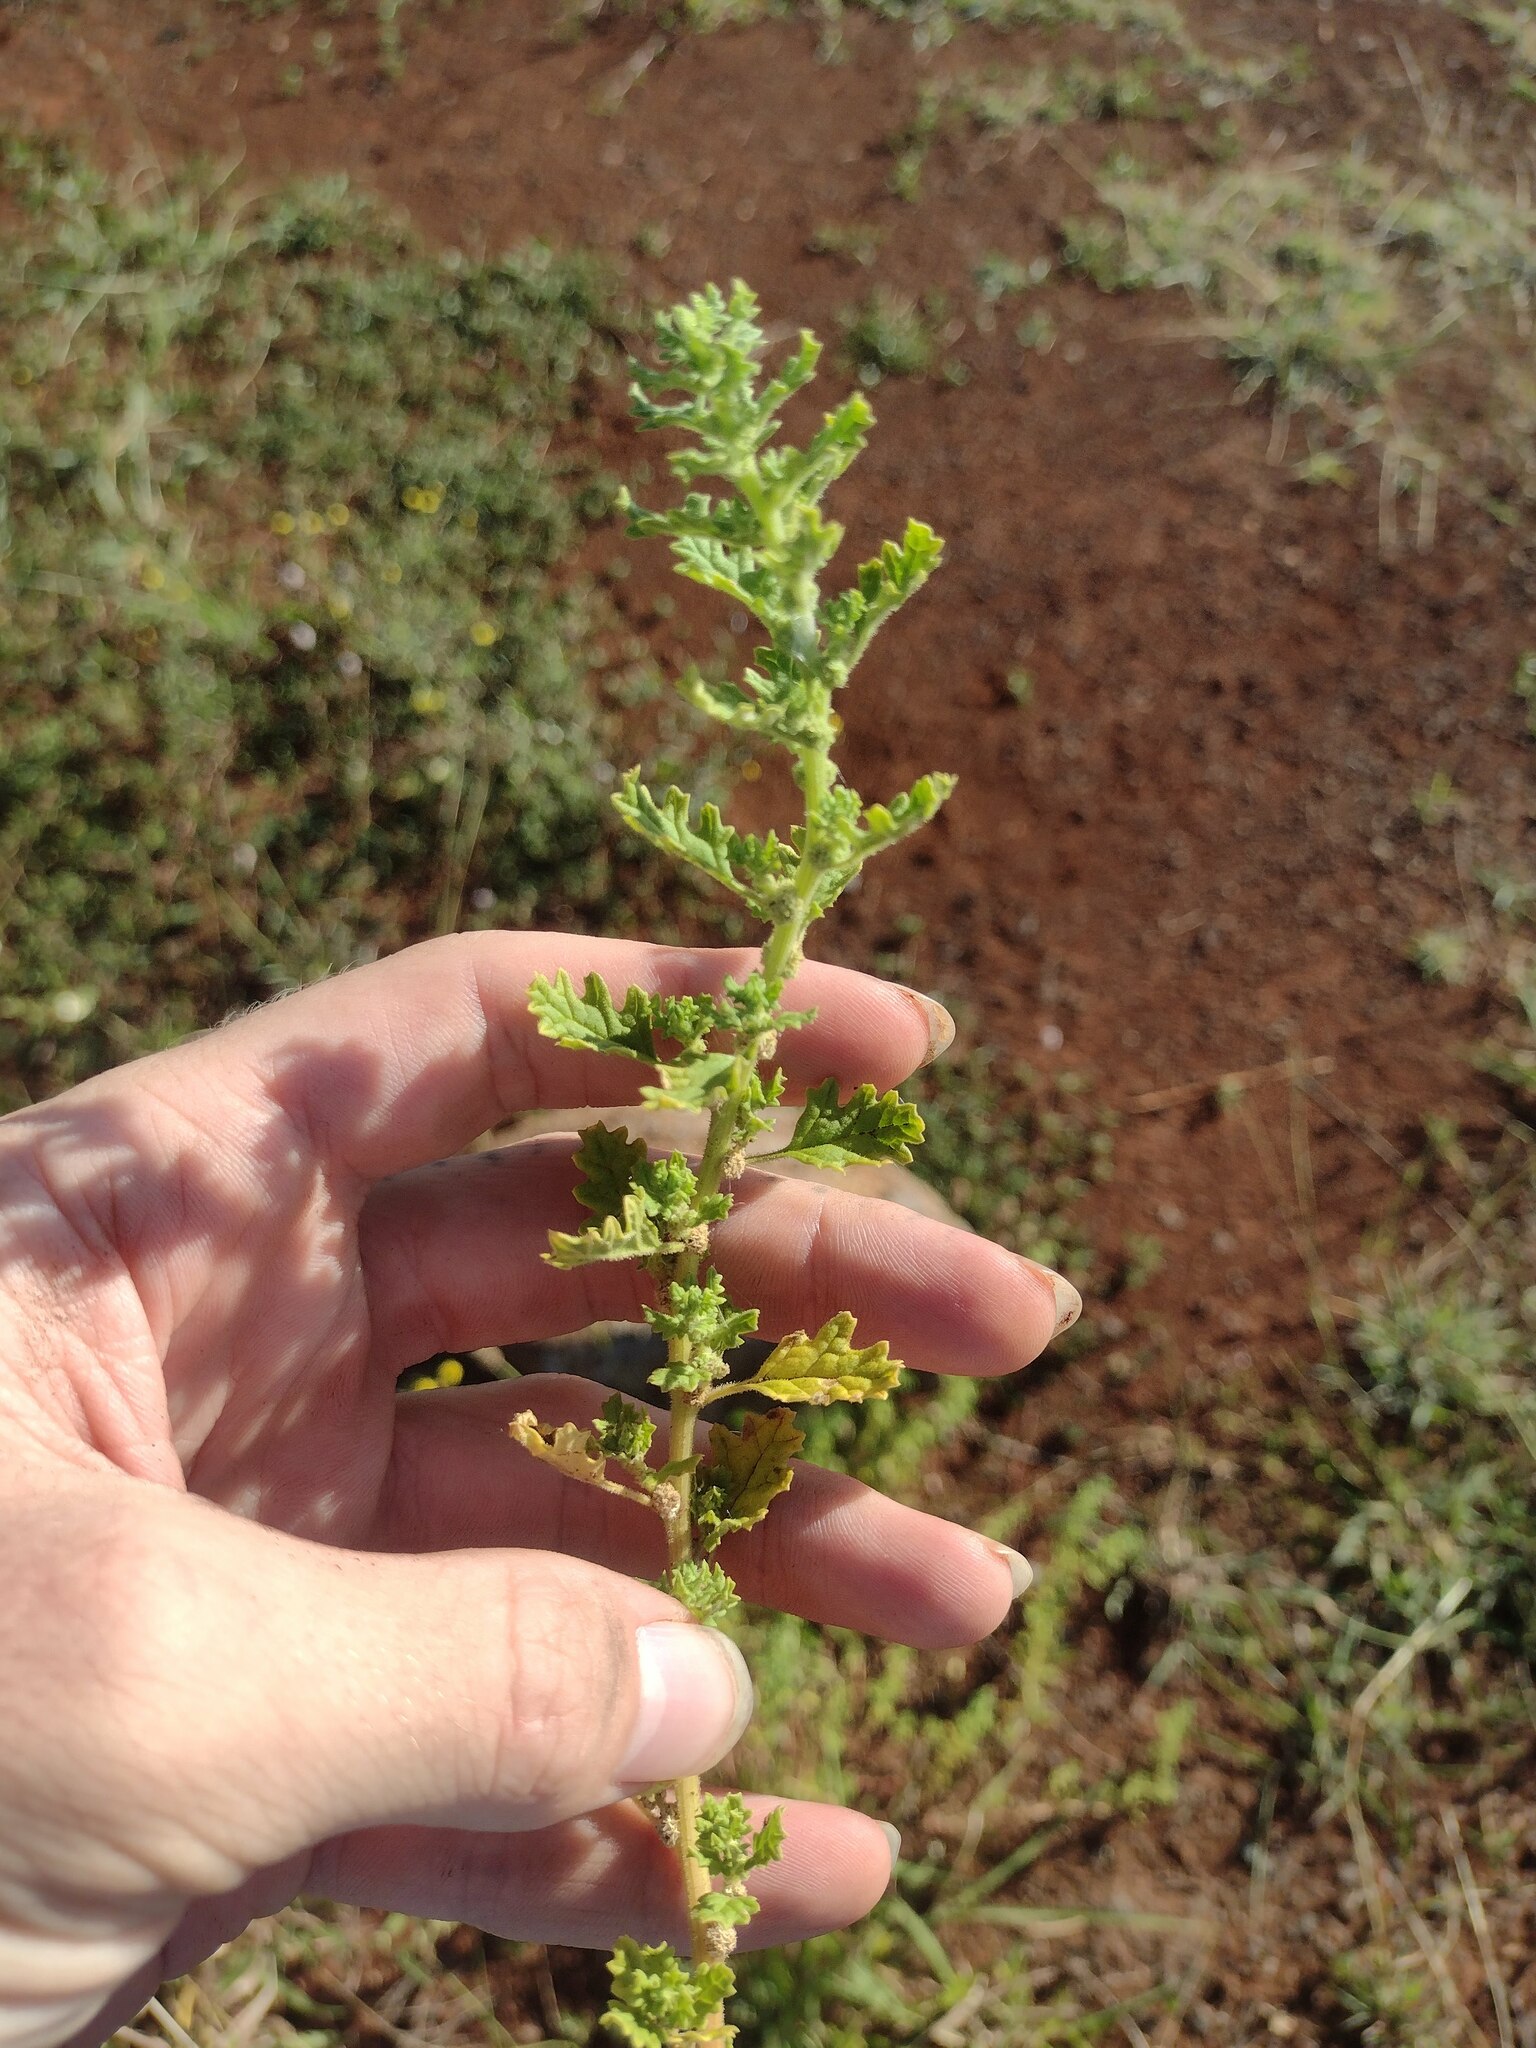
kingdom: Plantae
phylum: Tracheophyta
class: Magnoliopsida
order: Caryophyllales
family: Amaranthaceae
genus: Dysphania
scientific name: Dysphania carinata
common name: Keeled wormseed
